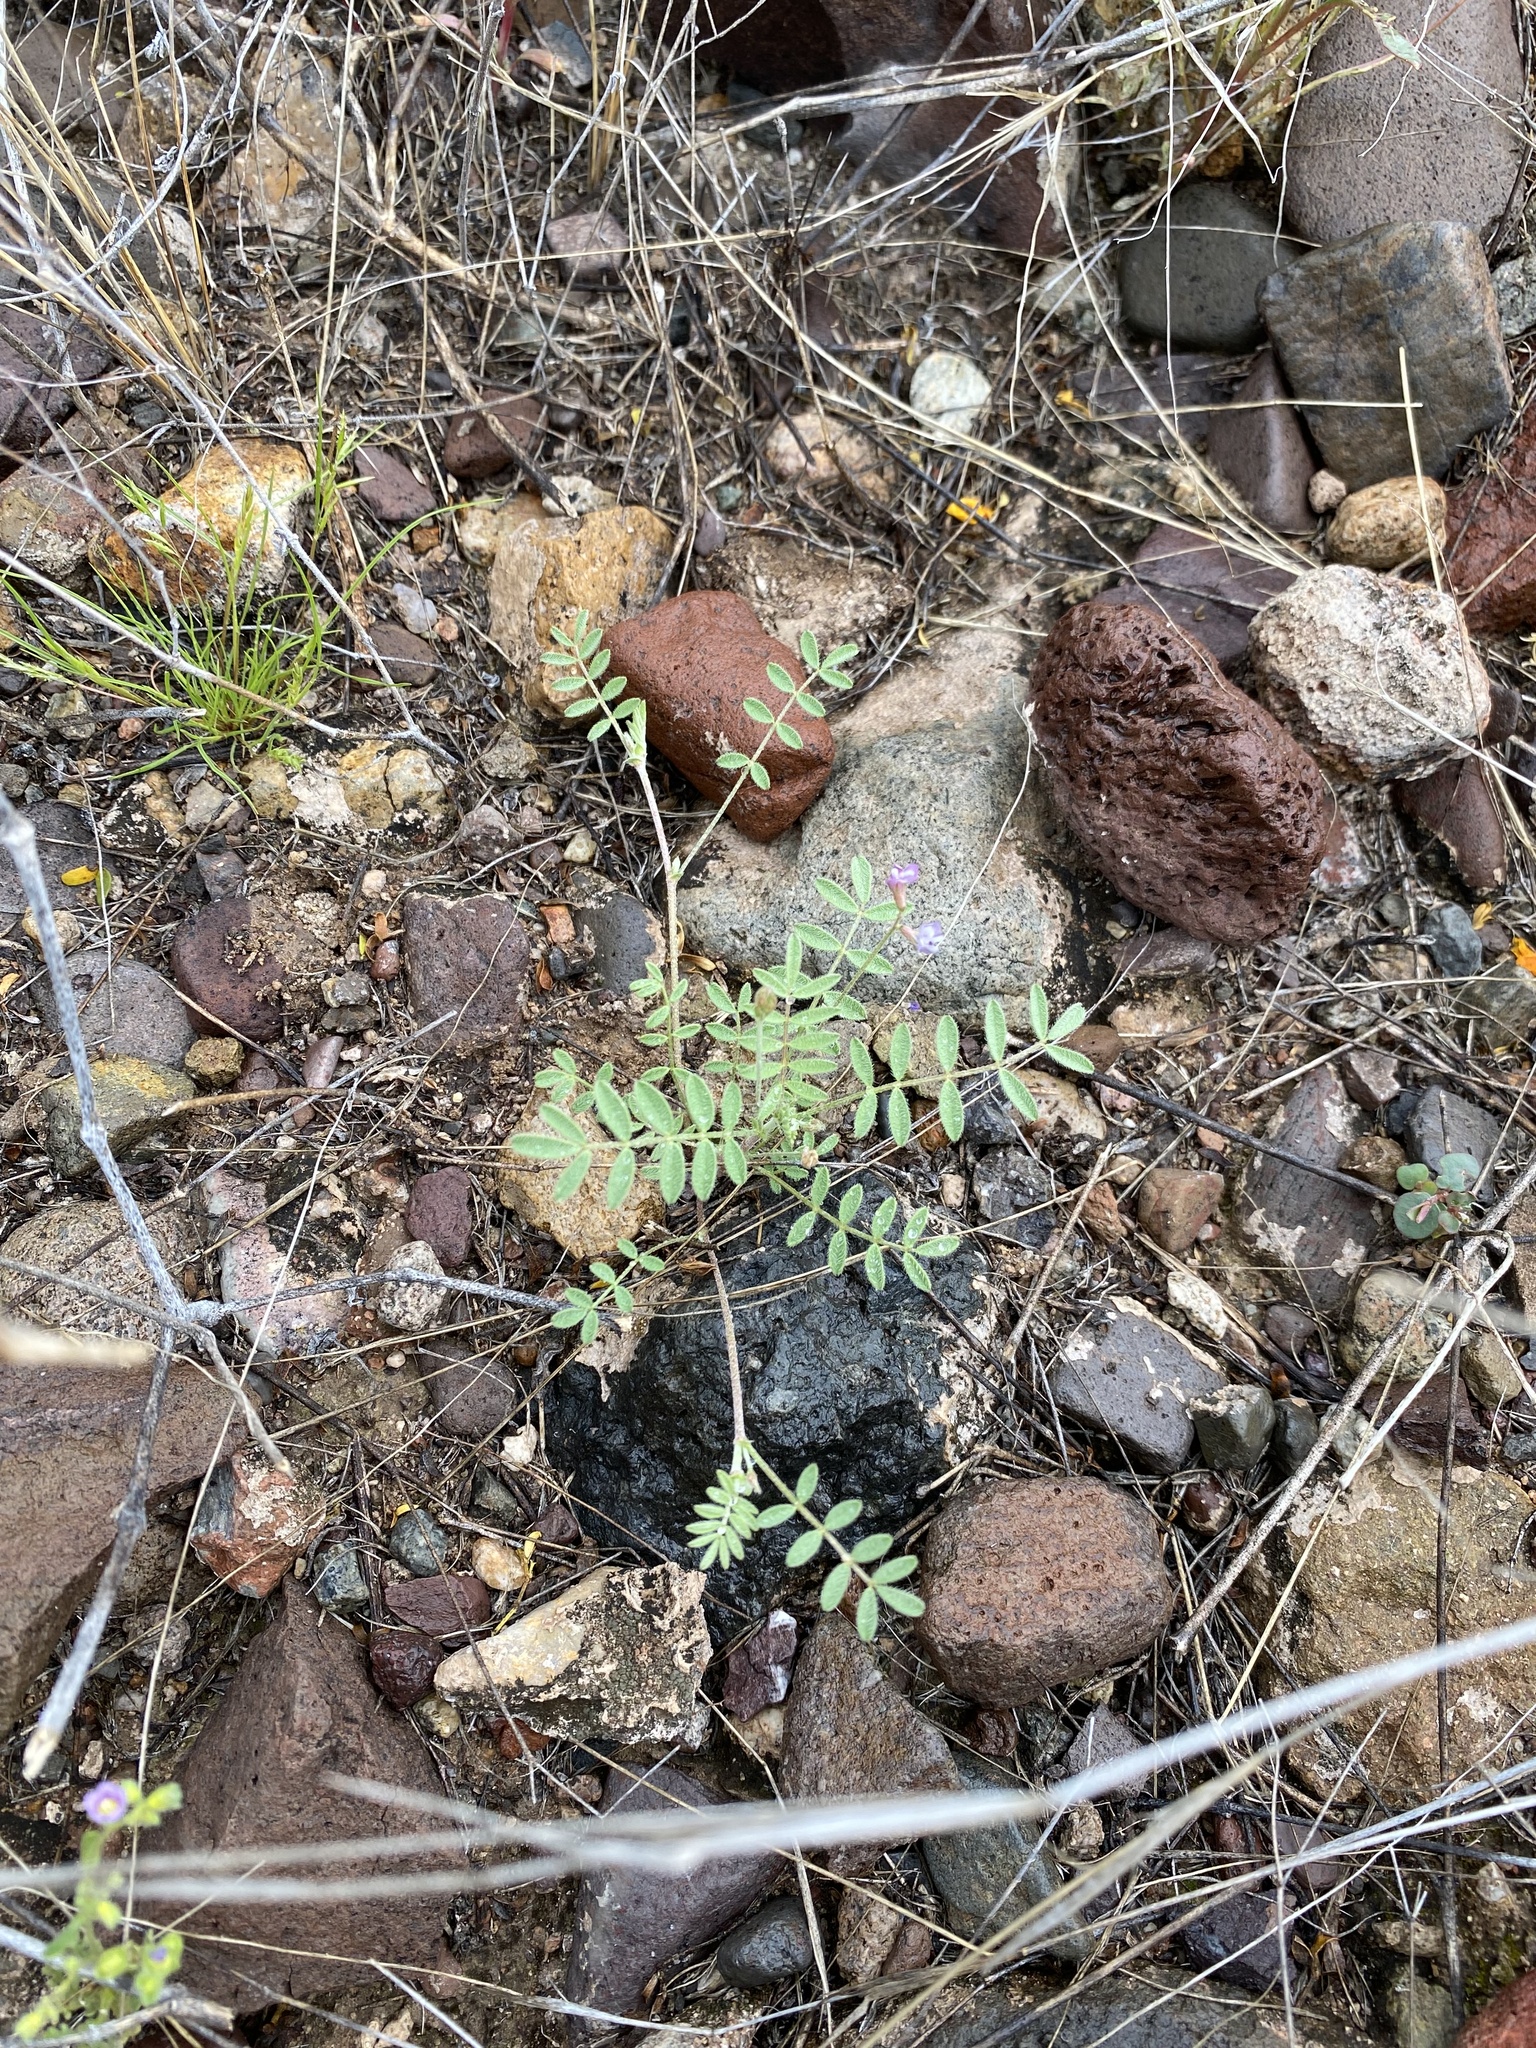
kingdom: Plantae
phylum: Tracheophyta
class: Magnoliopsida
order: Fabales
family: Fabaceae
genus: Astragalus
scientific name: Astragalus nuttallianus
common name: Smallflowered milkvetch
